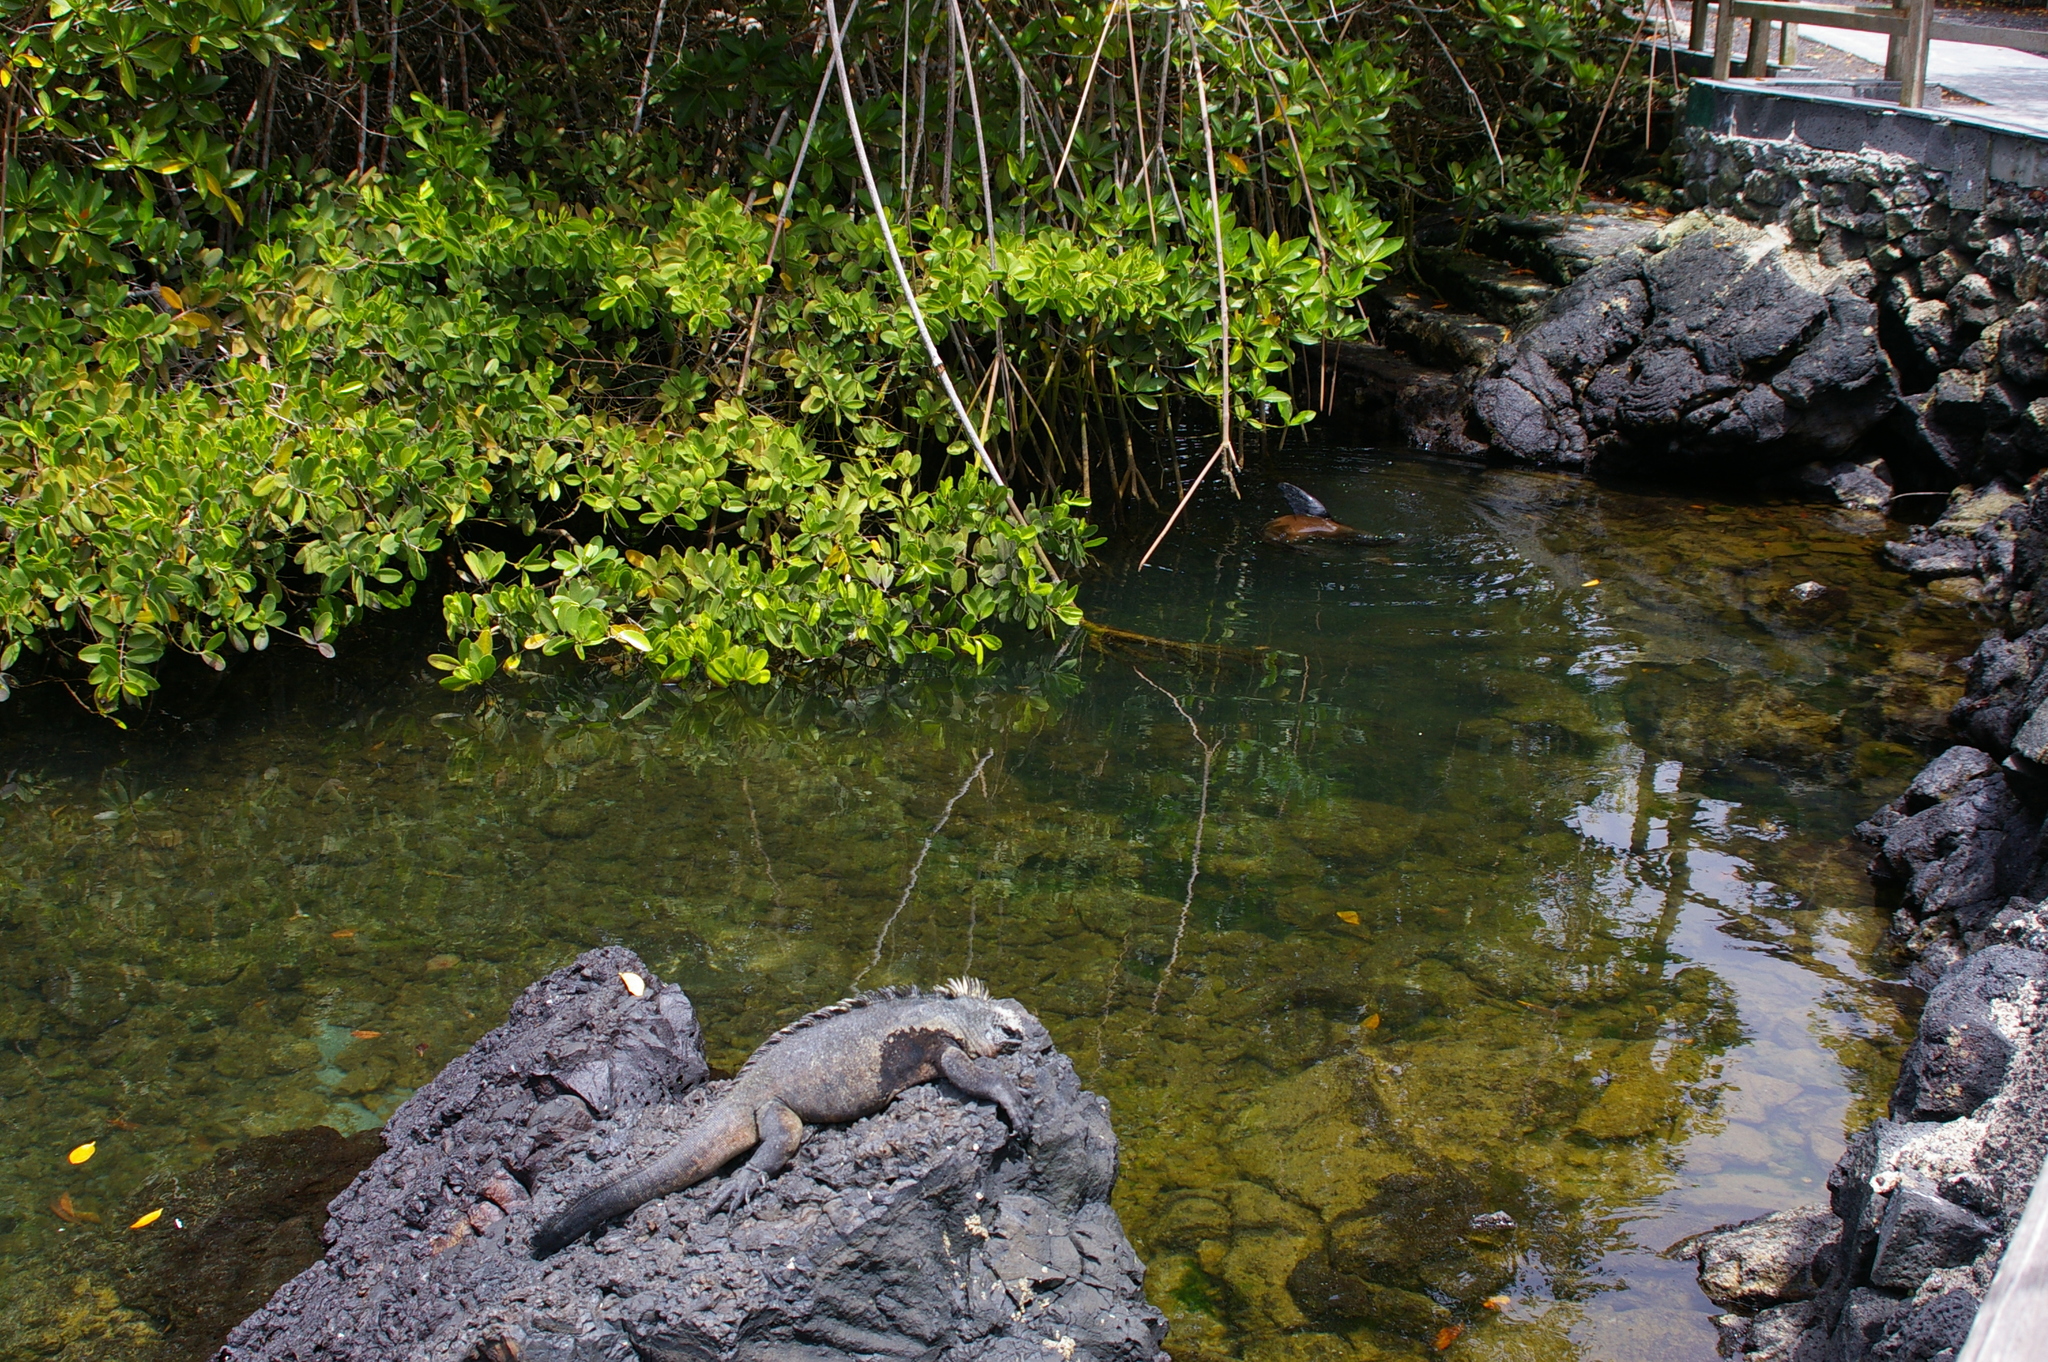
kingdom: Animalia
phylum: Chordata
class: Squamata
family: Iguanidae
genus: Amblyrhynchus
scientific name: Amblyrhynchus cristatus
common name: Marine iguana
